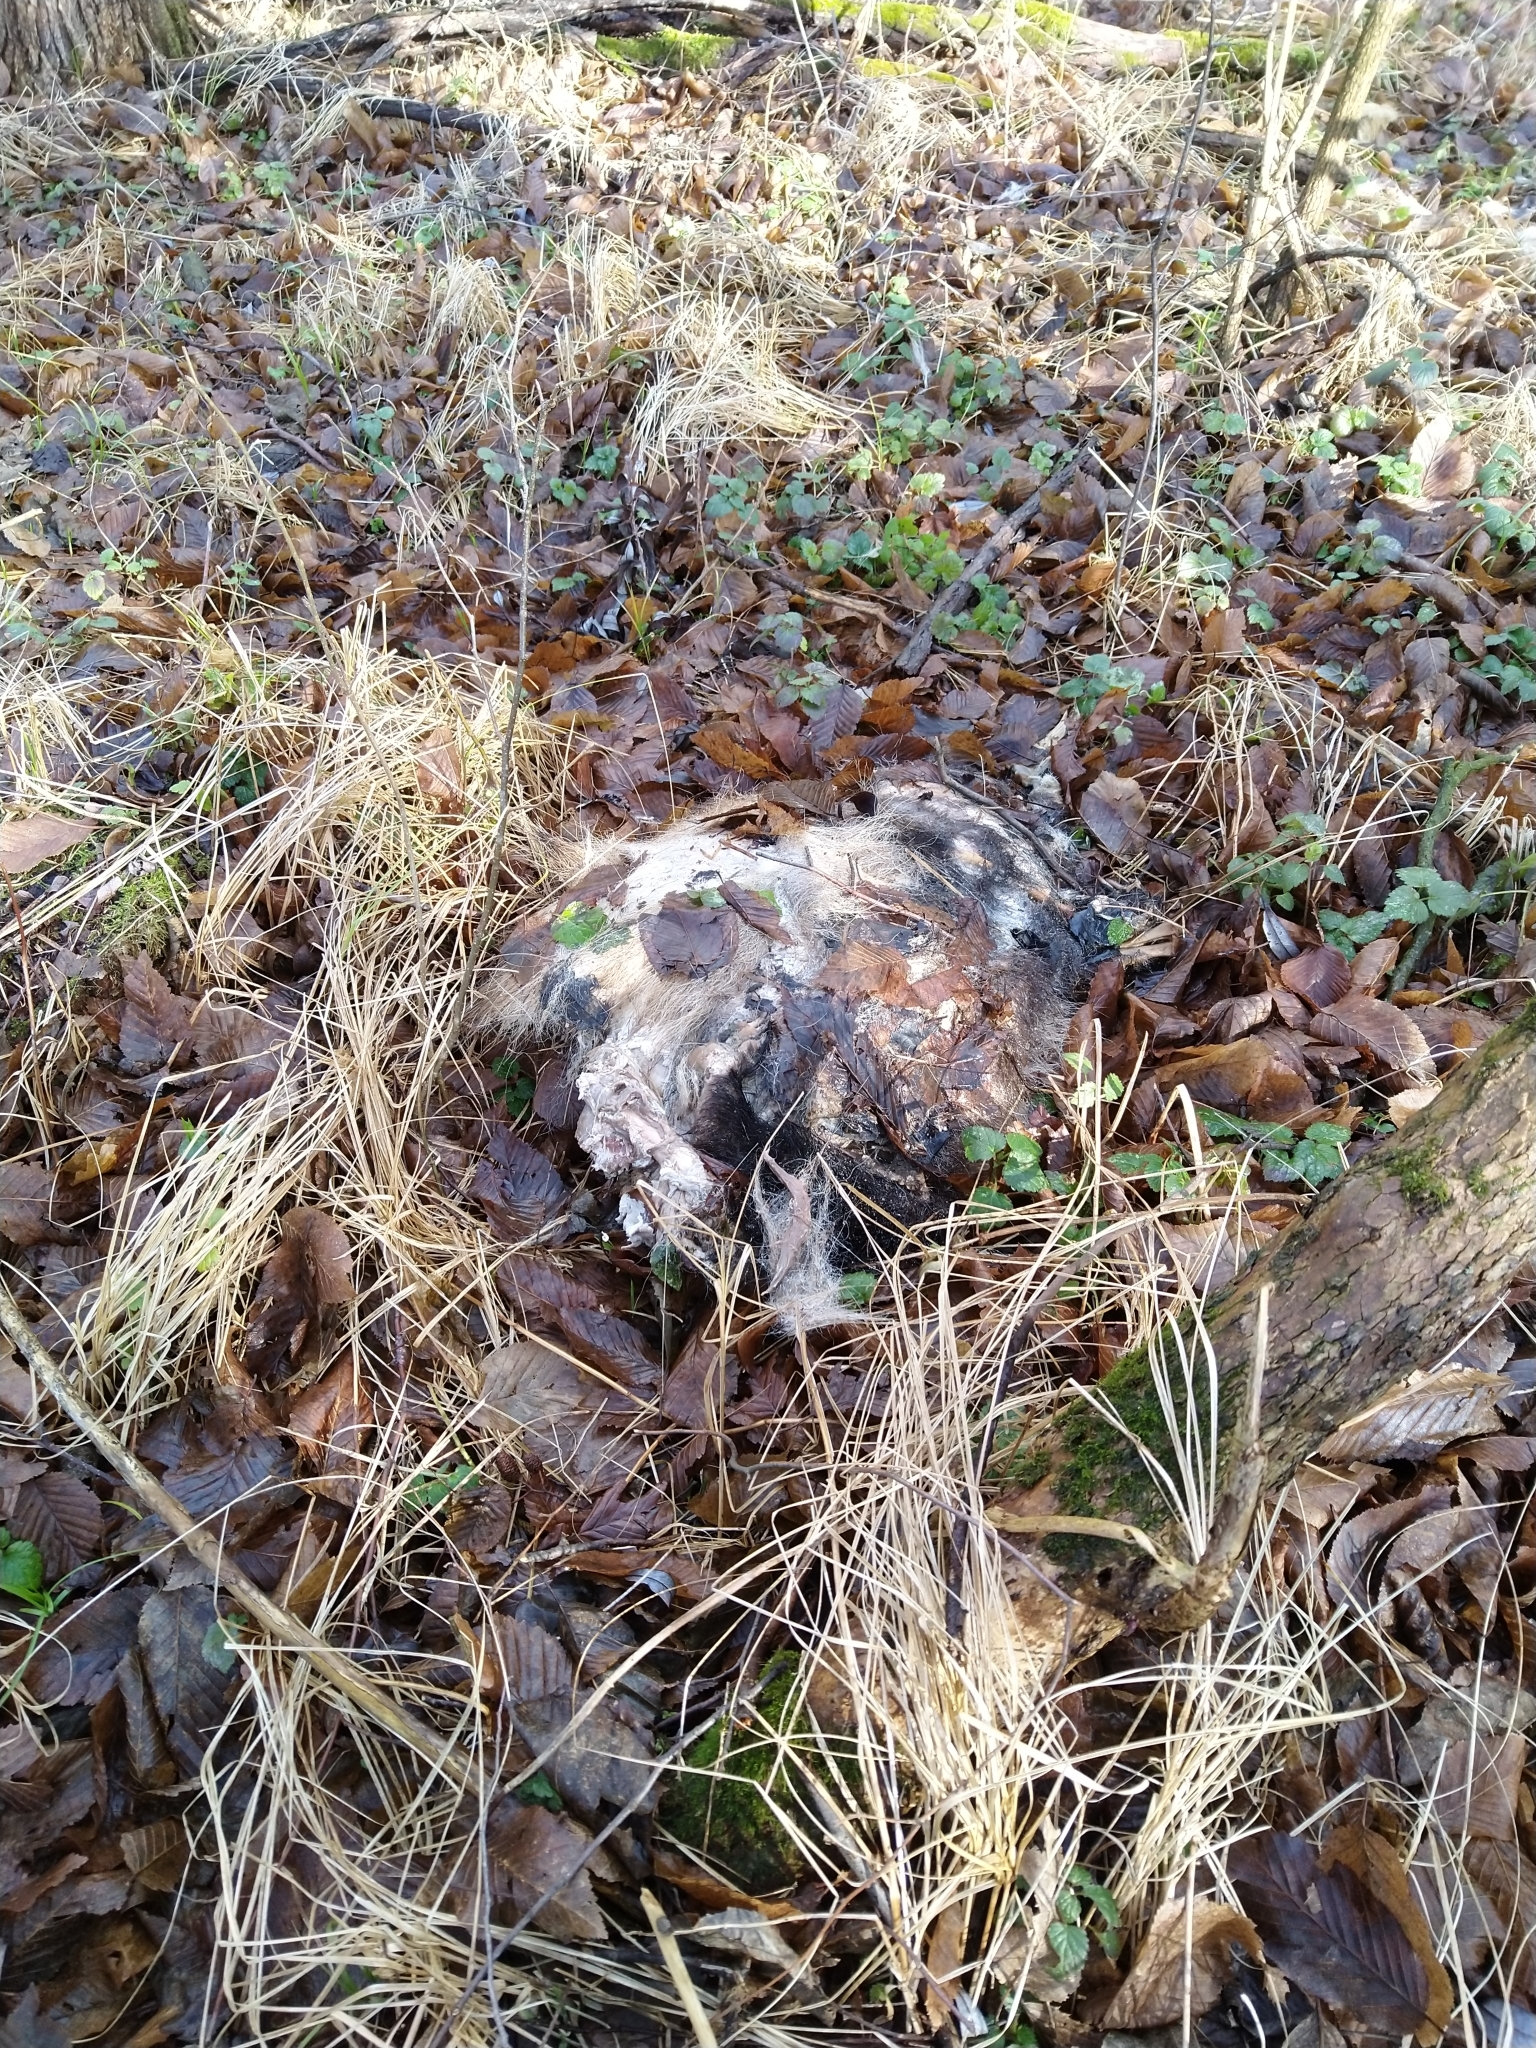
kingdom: Animalia
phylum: Chordata
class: Mammalia
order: Carnivora
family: Mustelidae
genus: Meles
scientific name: Meles meles
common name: Eurasian badger
